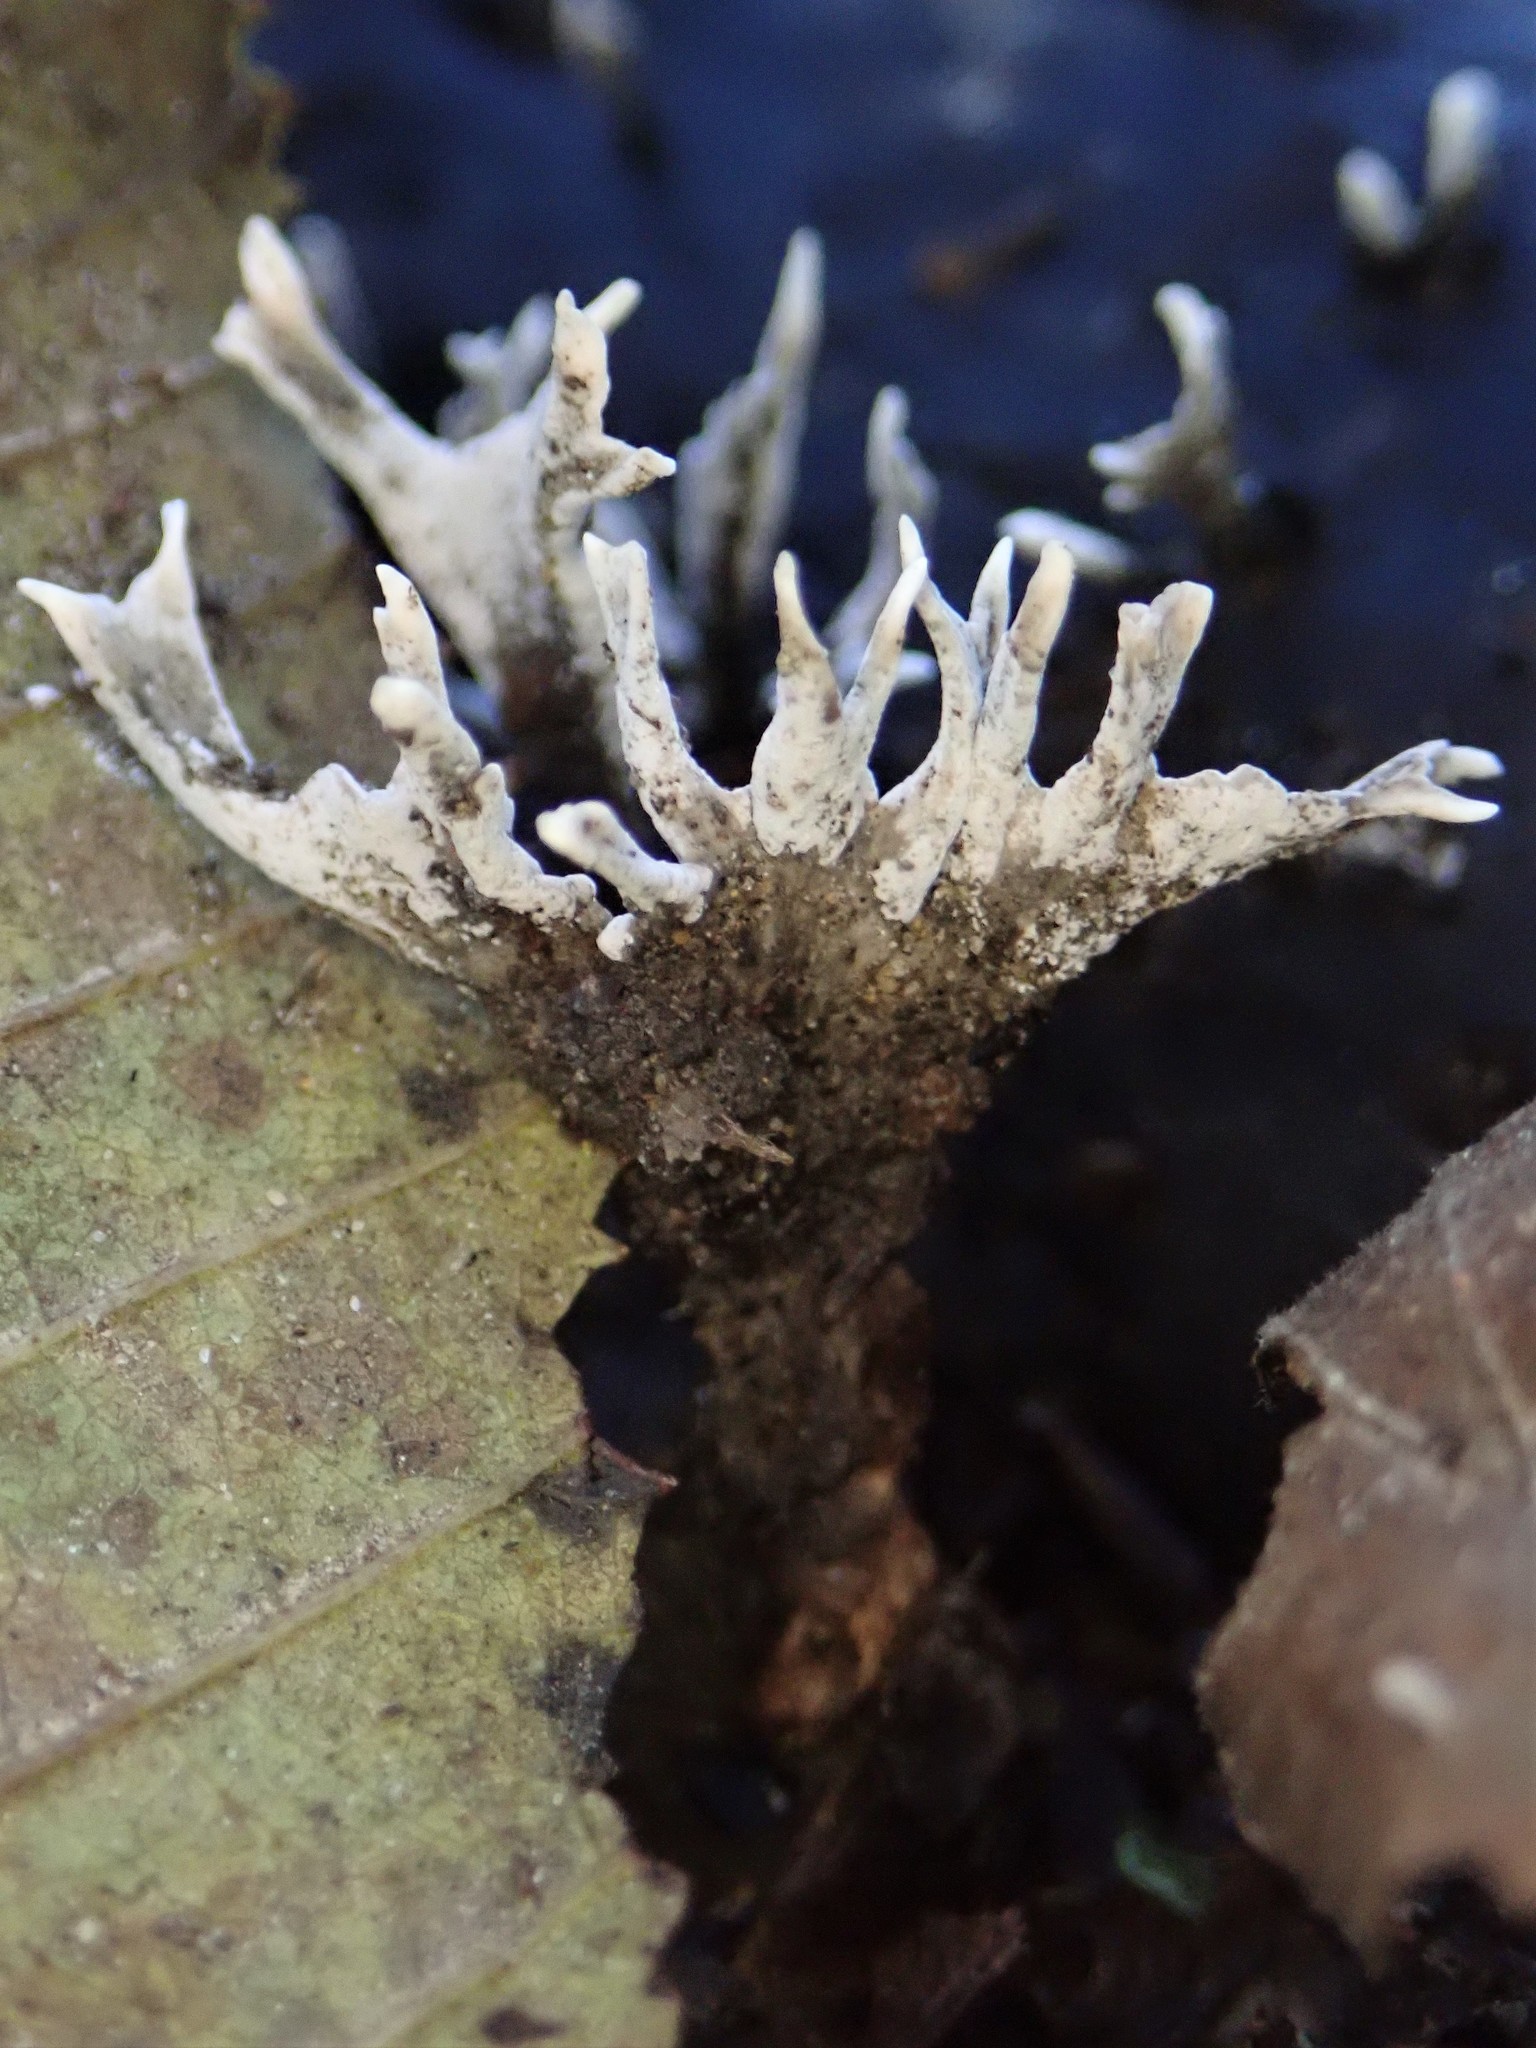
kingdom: Fungi
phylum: Ascomycota
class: Sordariomycetes
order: Xylariales
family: Xylariaceae
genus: Xylaria
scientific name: Xylaria hypoxylon
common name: Candle-snuff fungus
